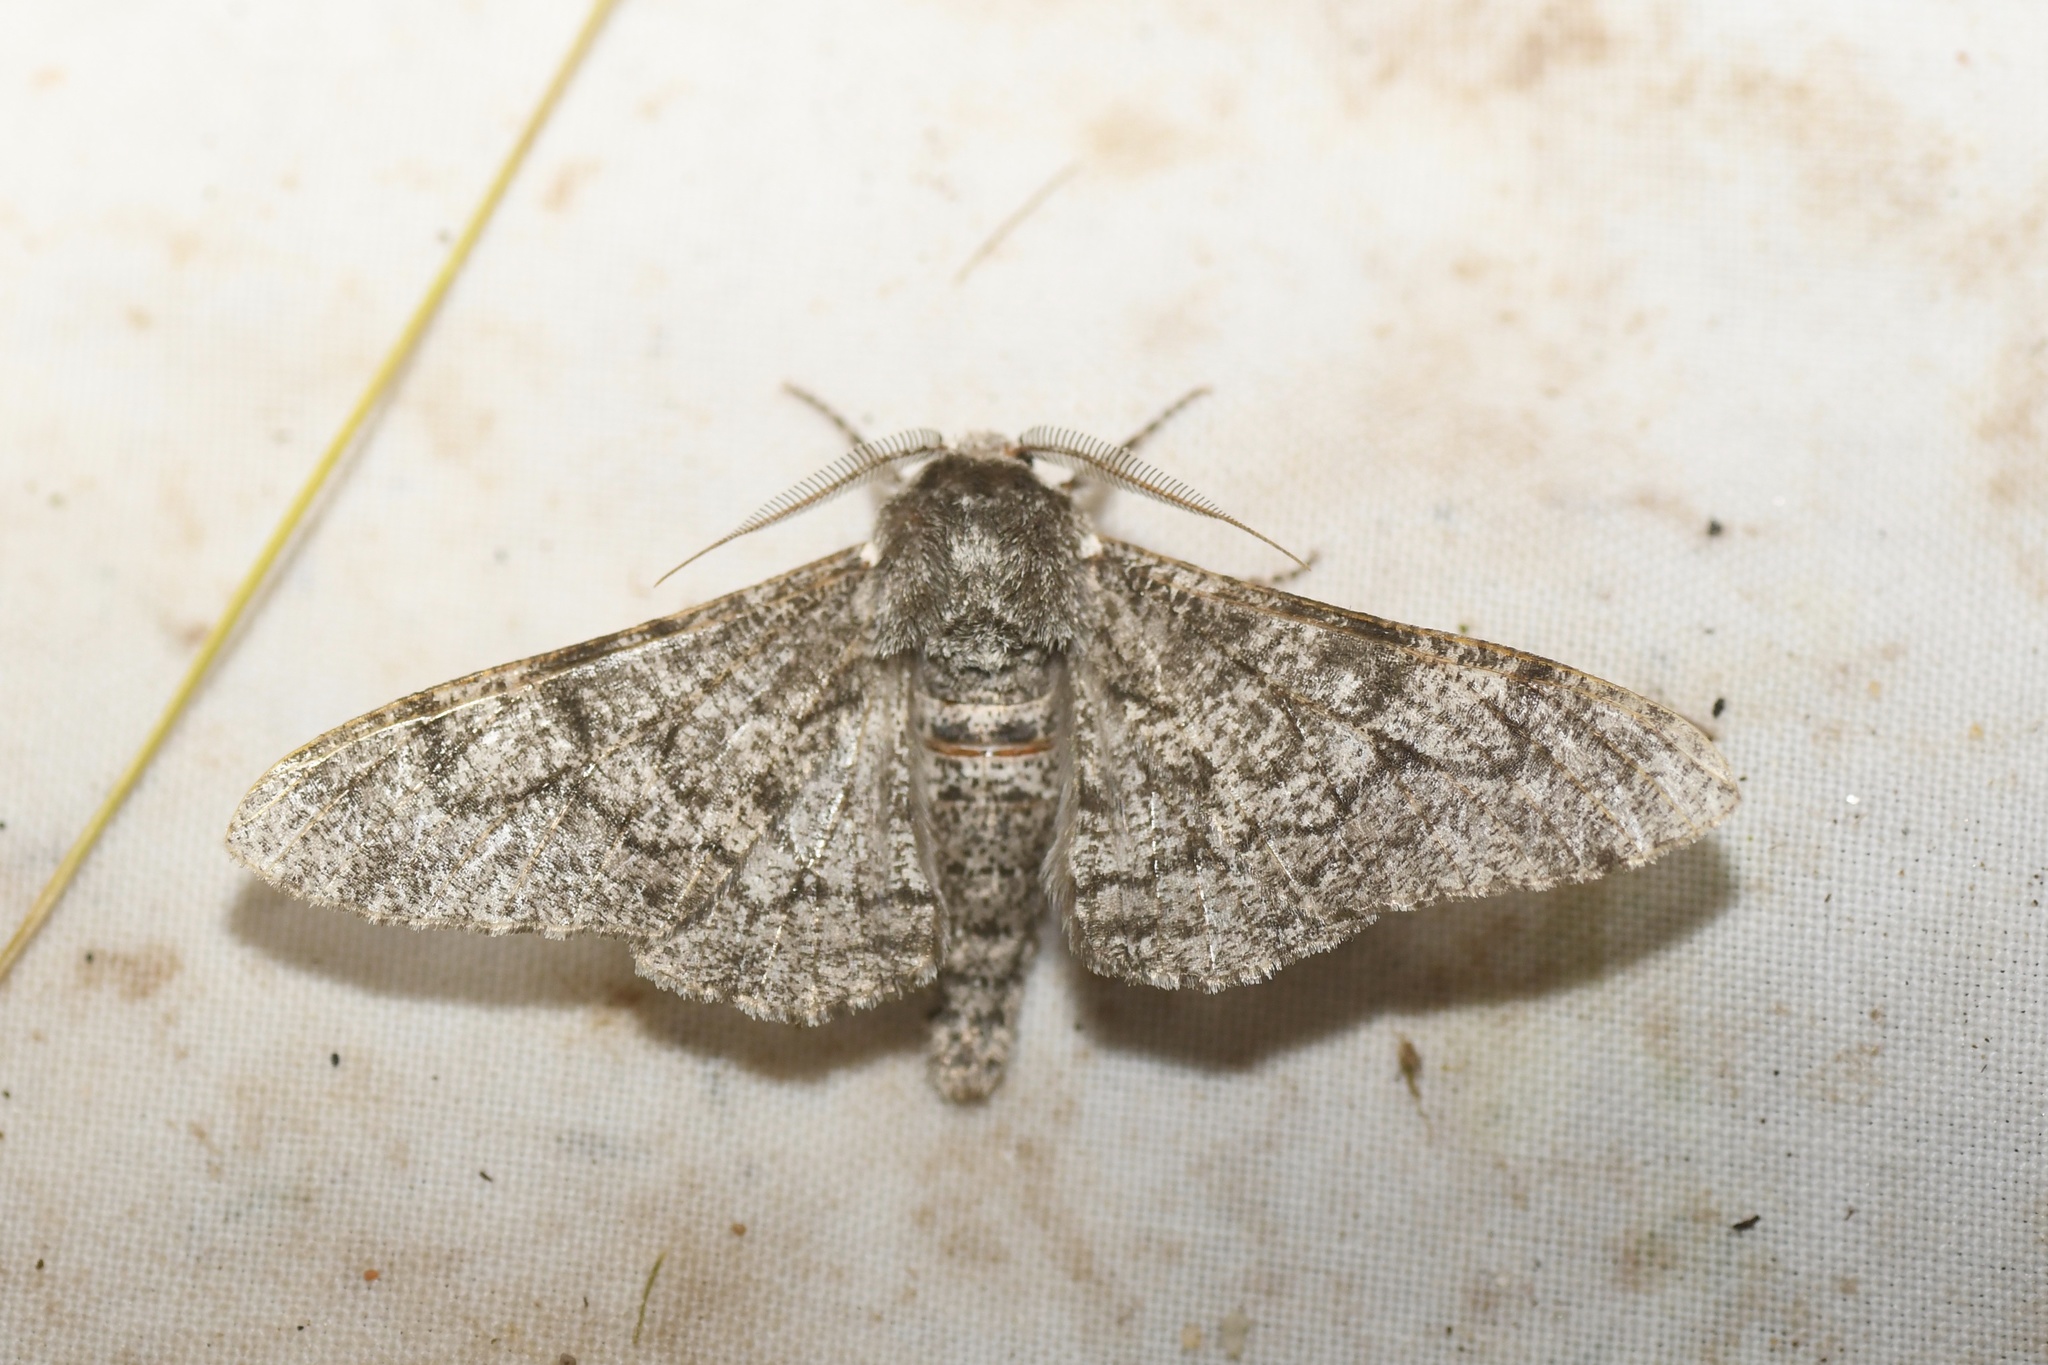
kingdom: Animalia
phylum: Arthropoda
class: Insecta
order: Lepidoptera
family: Geometridae
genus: Biston
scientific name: Biston betularia
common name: Peppered moth
